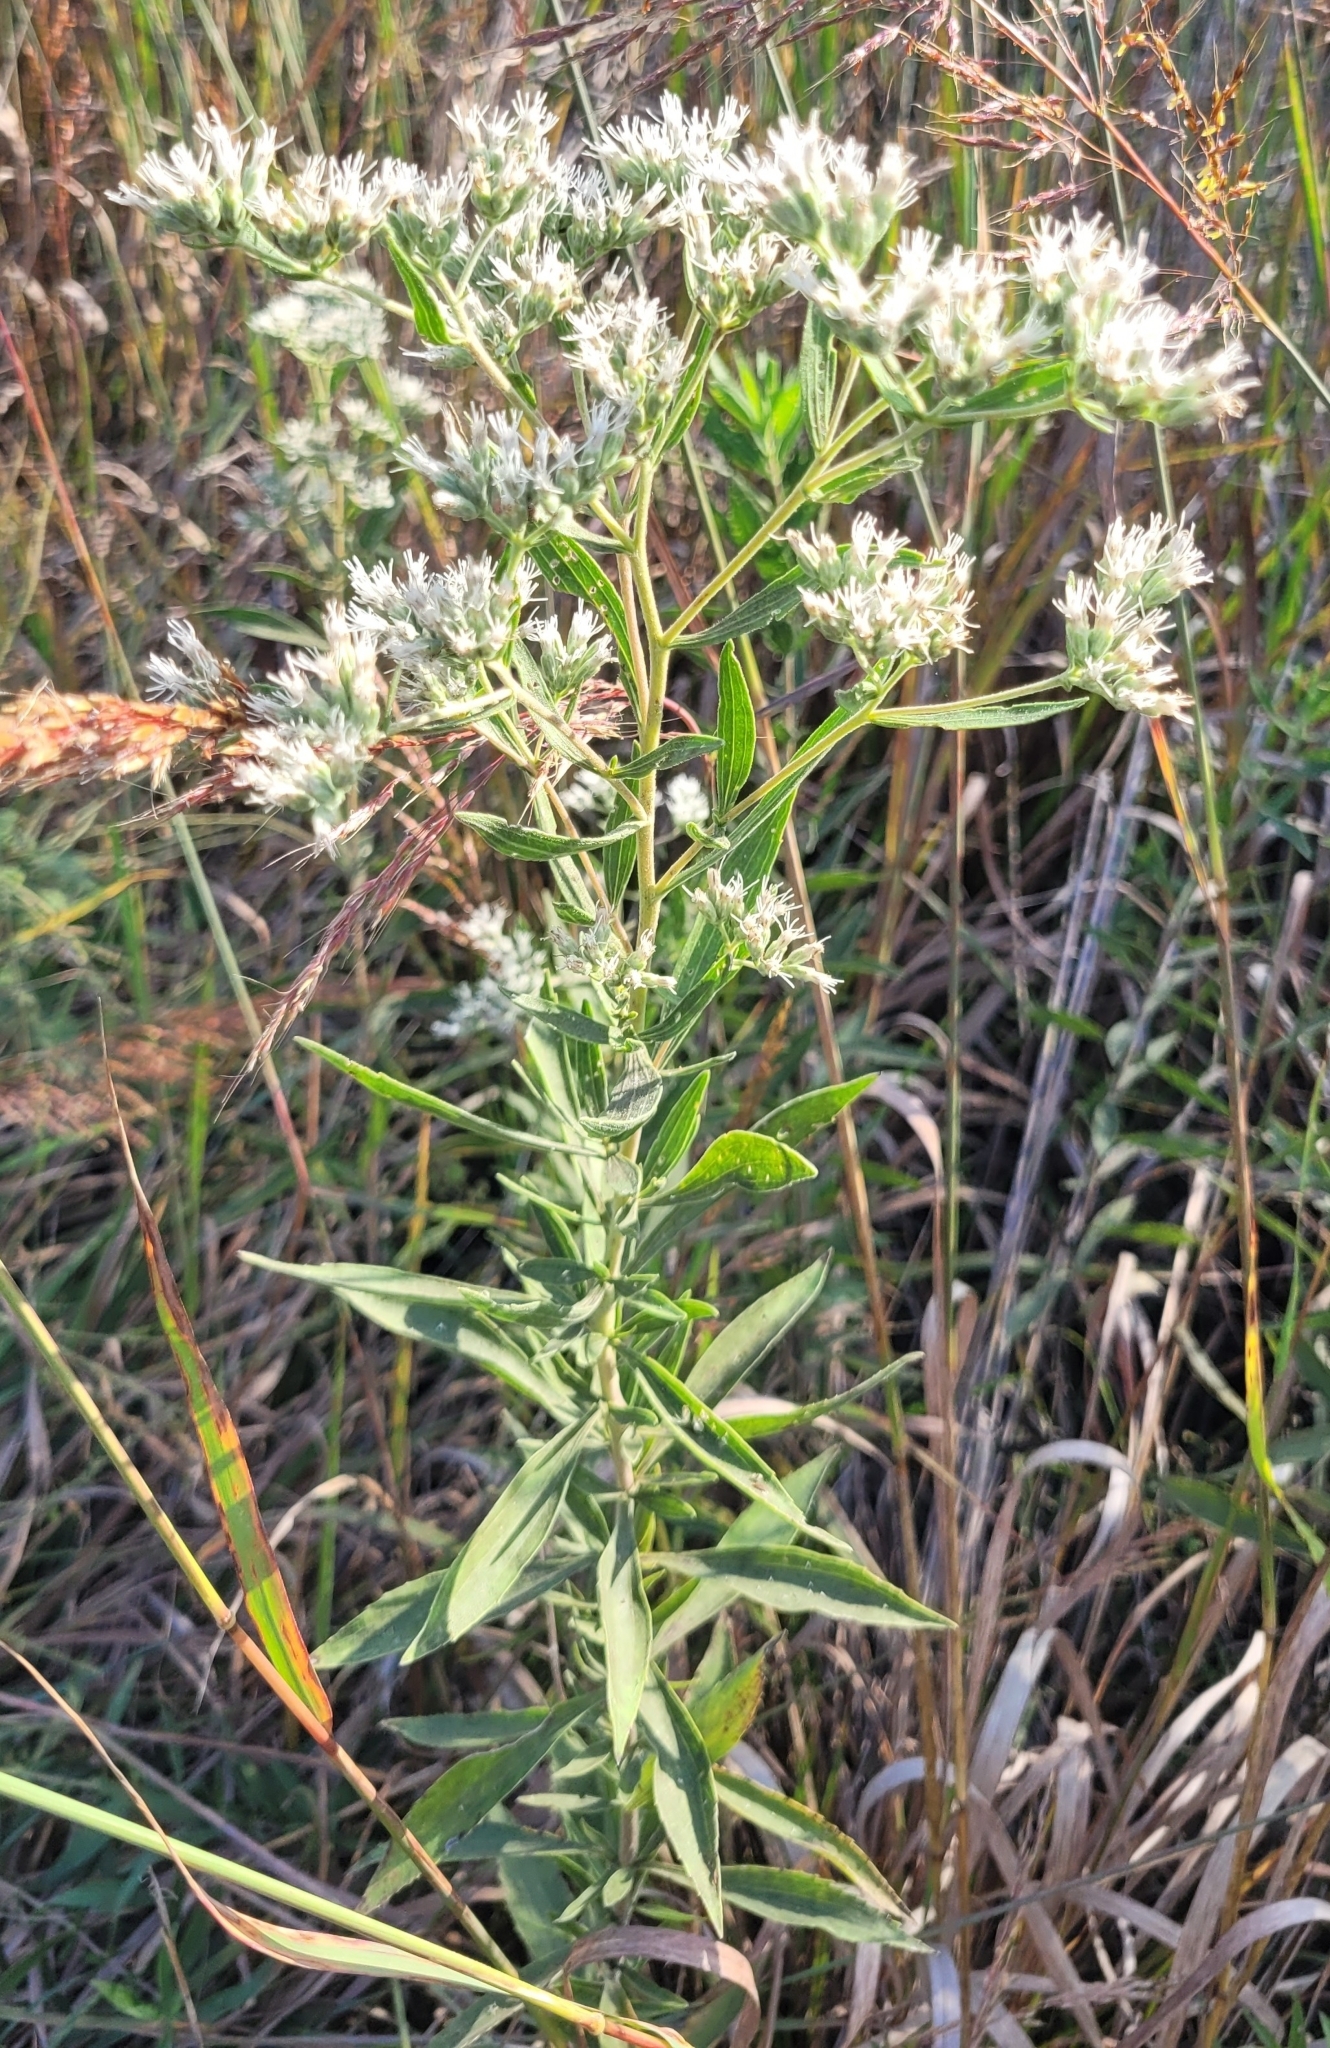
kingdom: Plantae
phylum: Tracheophyta
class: Magnoliopsida
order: Asterales
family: Asteraceae
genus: Eupatorium
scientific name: Eupatorium altissimum
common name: Tall thoroughwort
